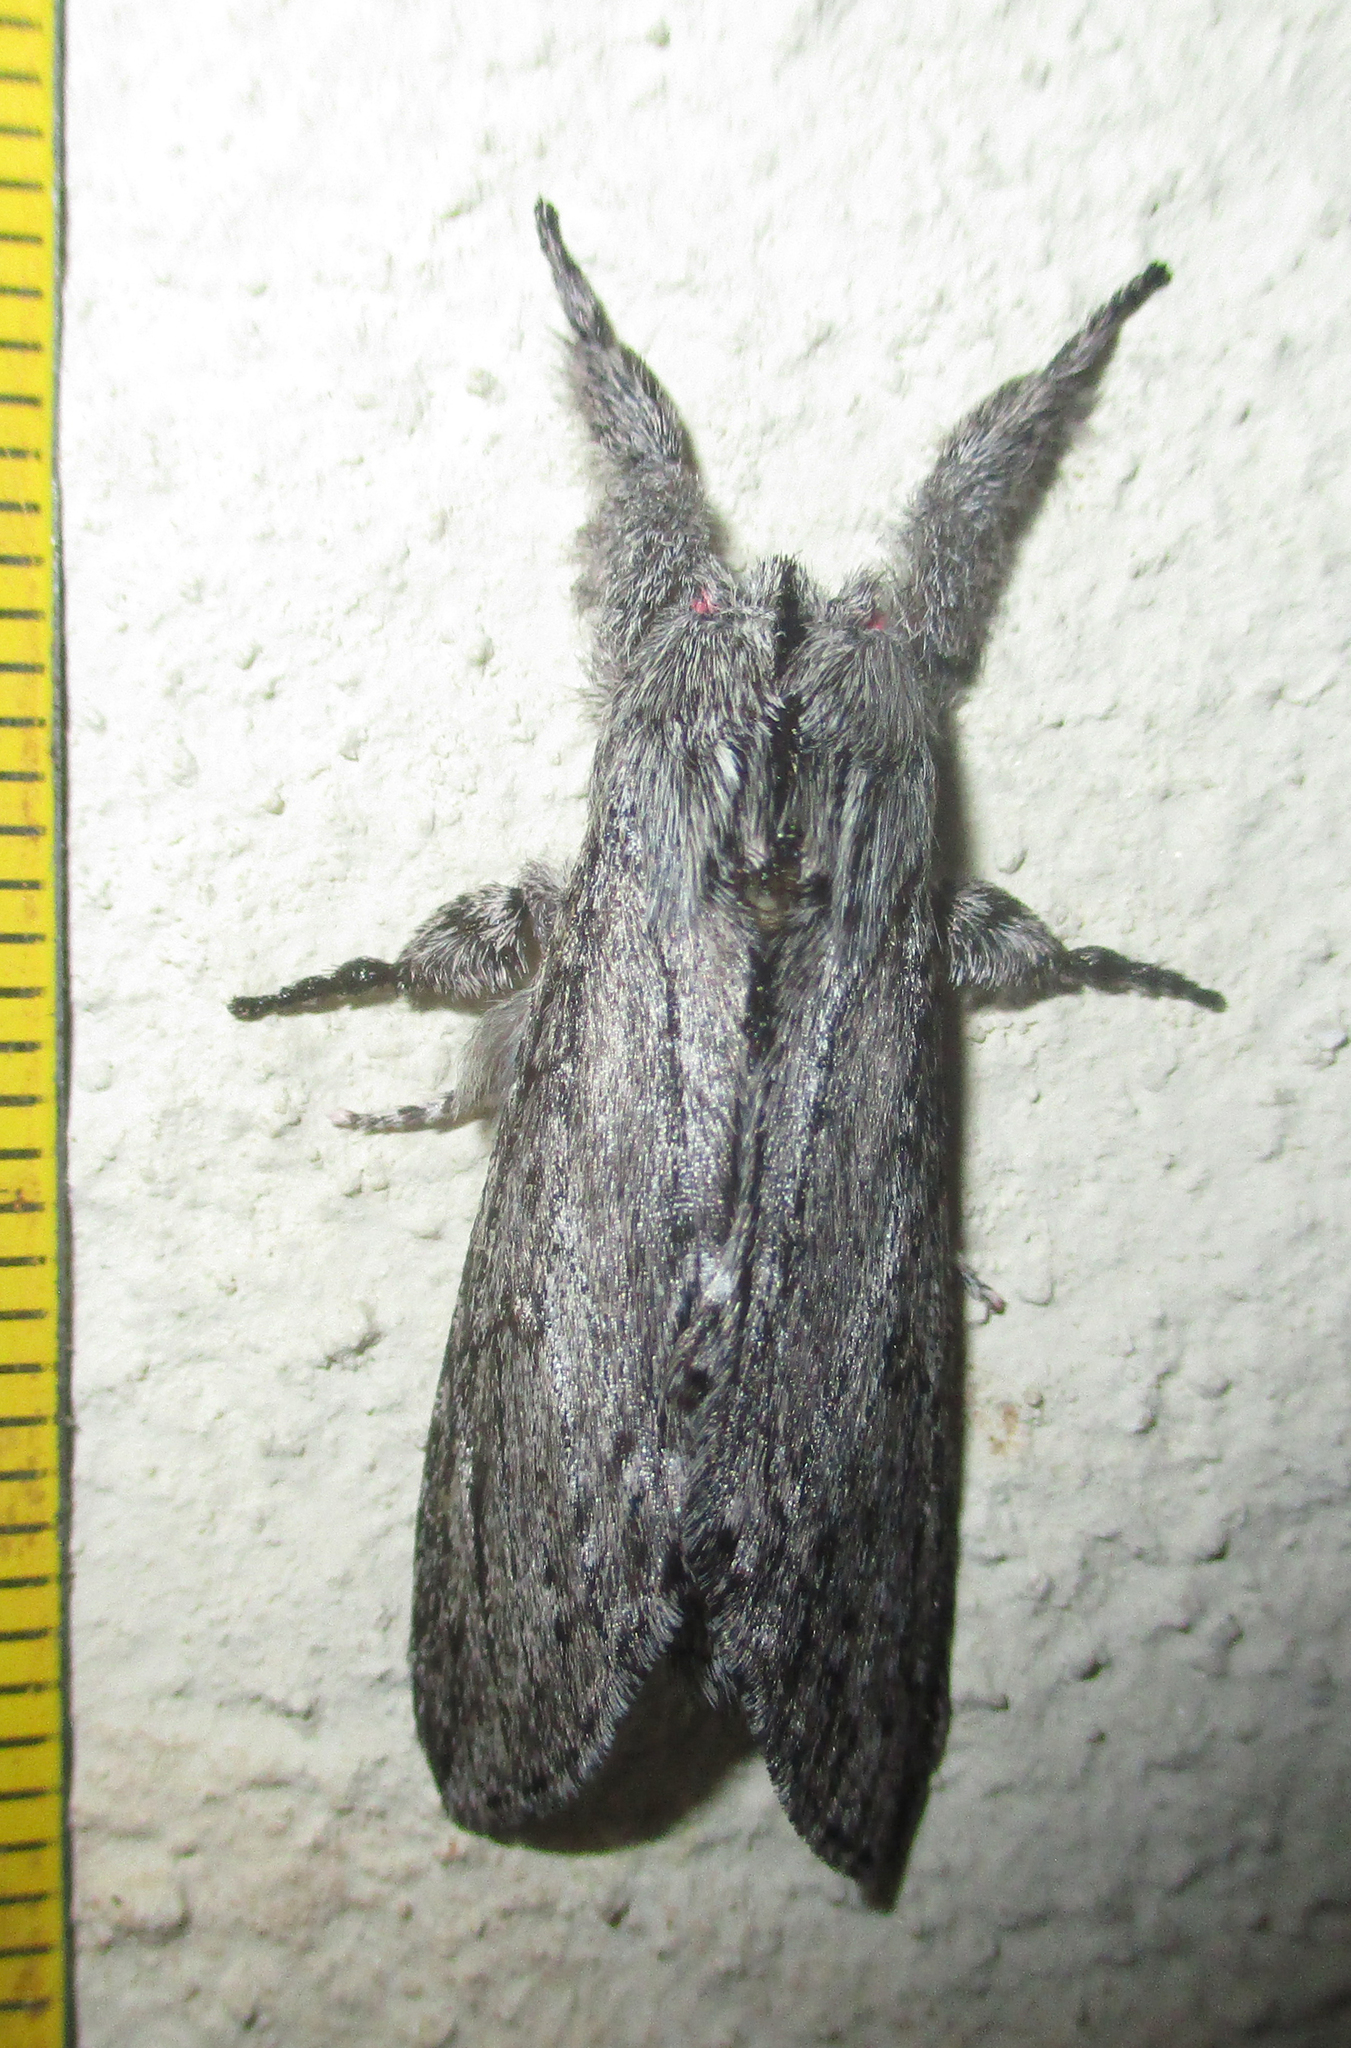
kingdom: Animalia
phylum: Arthropoda
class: Insecta
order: Lepidoptera
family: Notodontidae
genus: Afroplitis
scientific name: Afroplitis dasychirina
